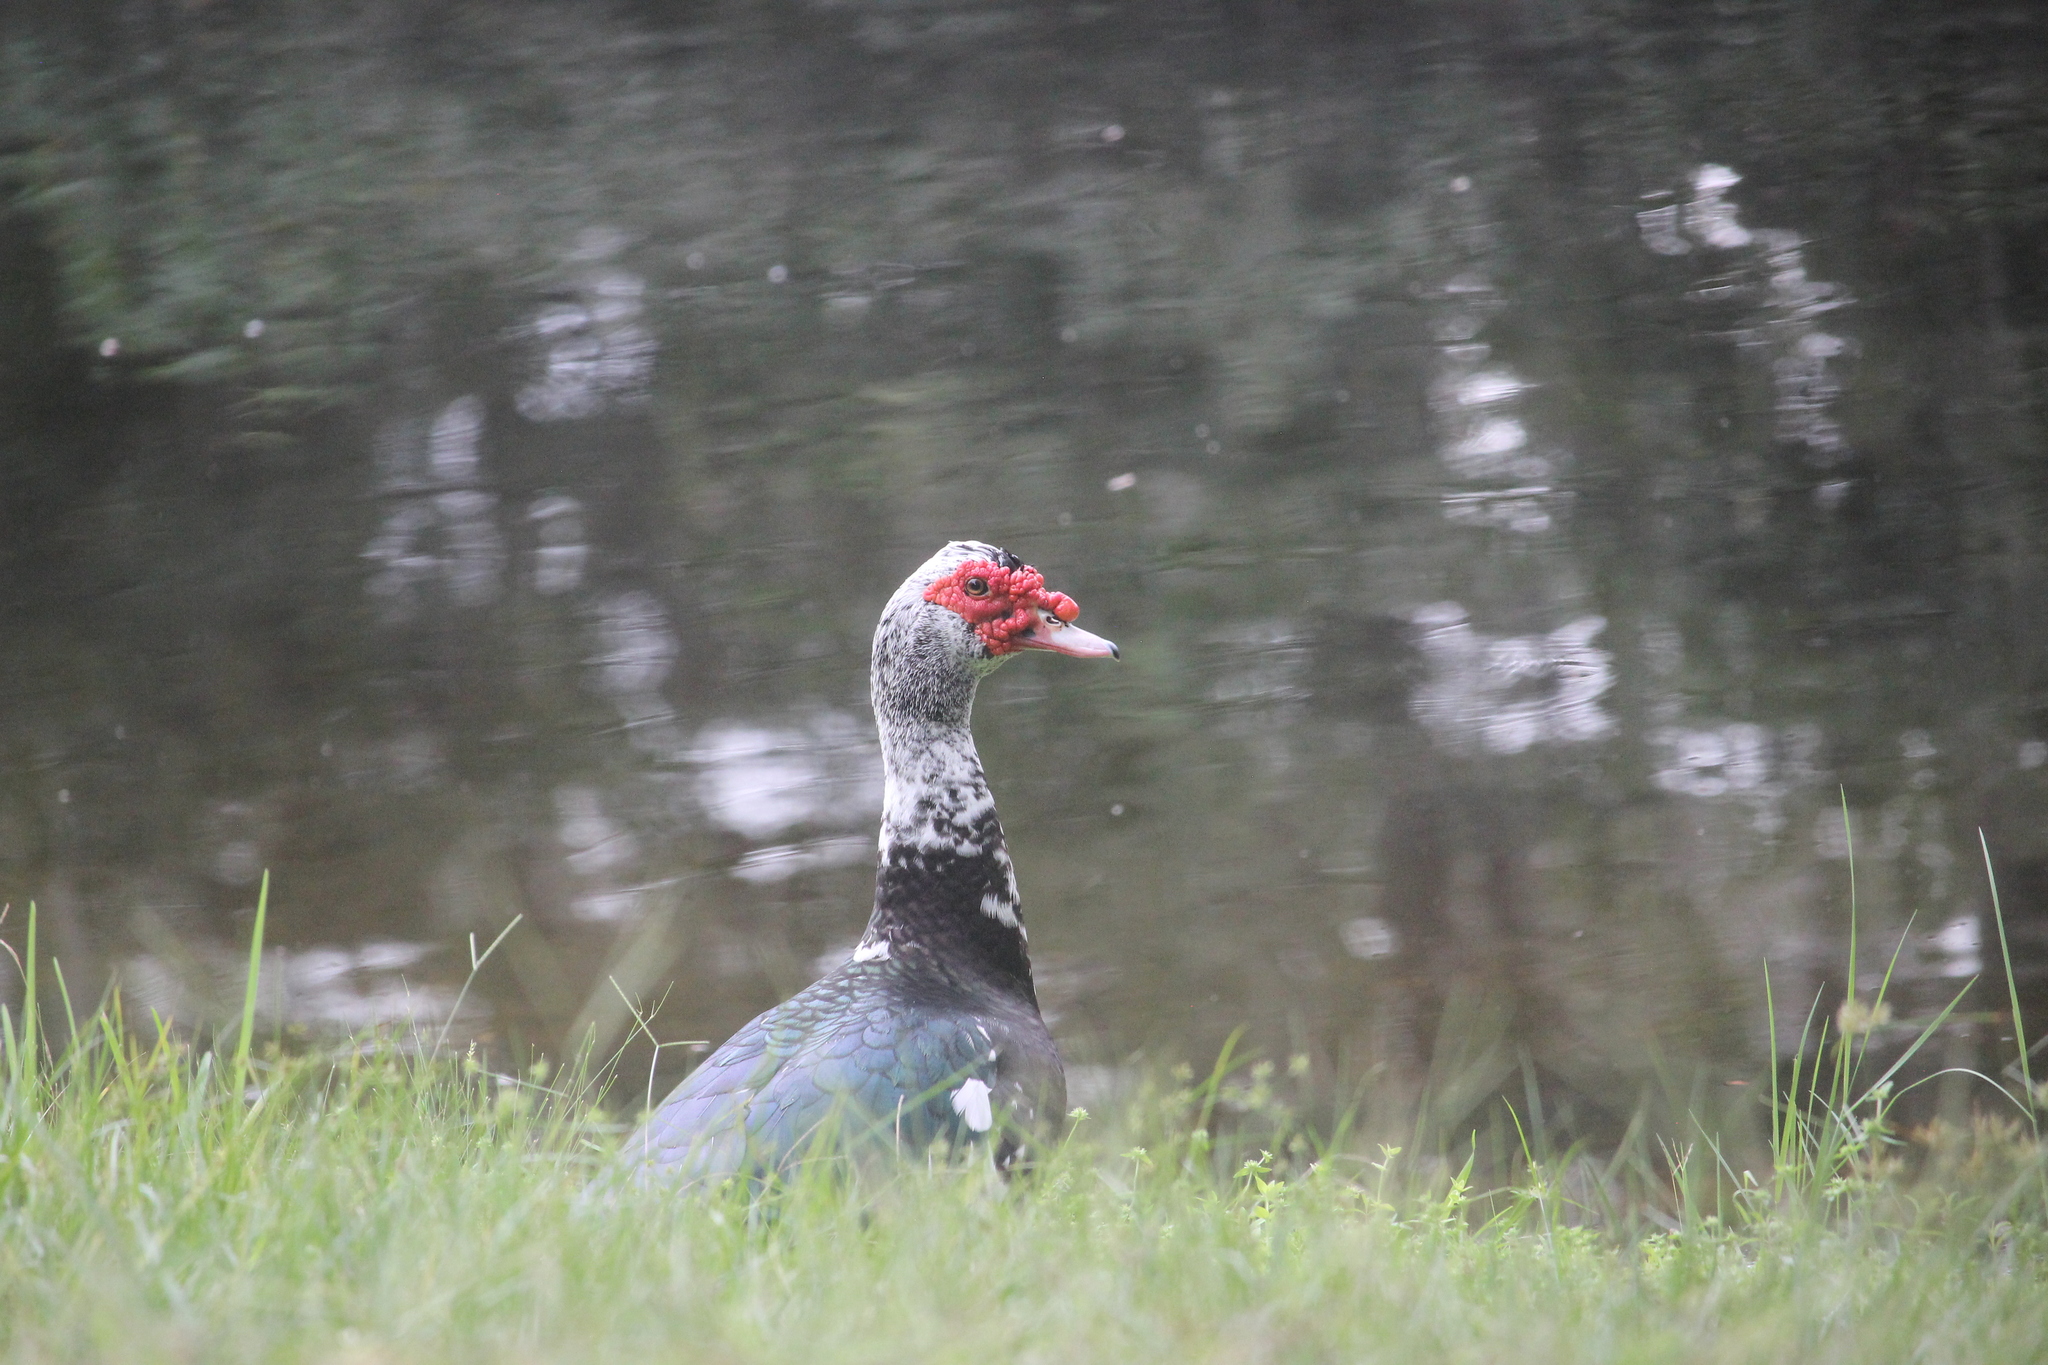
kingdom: Animalia
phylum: Chordata
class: Aves
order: Anseriformes
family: Anatidae
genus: Cairina
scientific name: Cairina moschata
